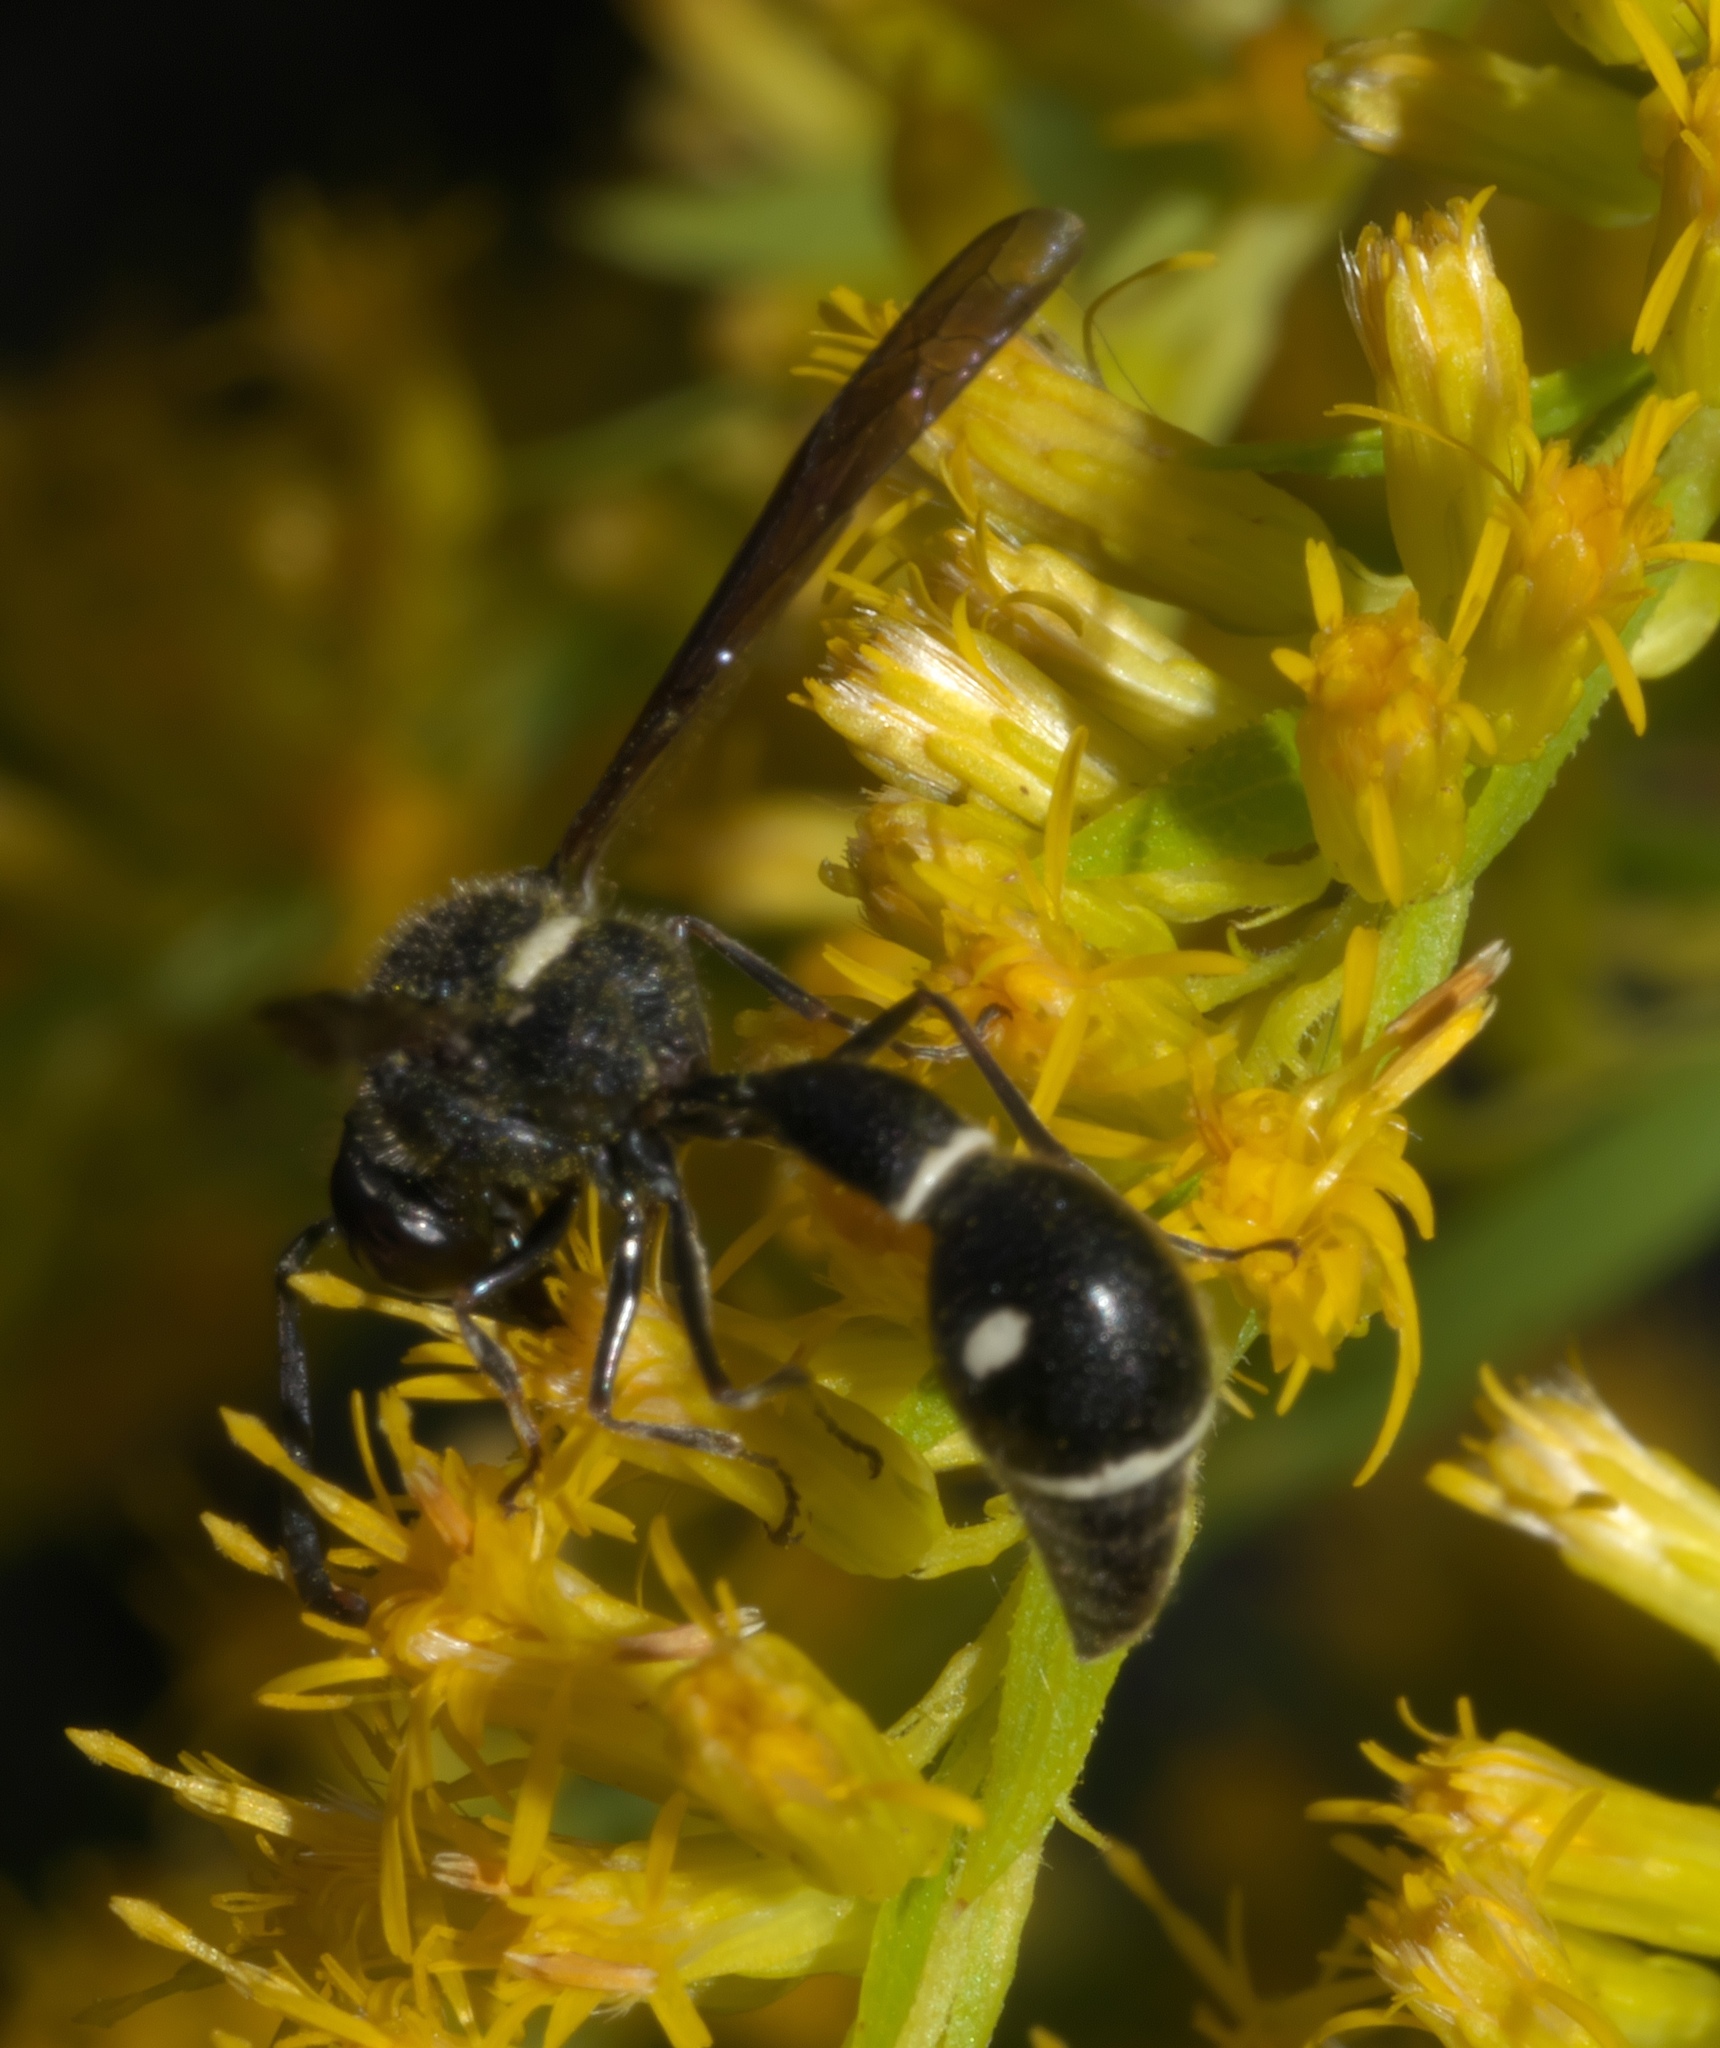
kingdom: Animalia
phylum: Arthropoda
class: Insecta
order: Hymenoptera
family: Vespidae
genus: Eumenes
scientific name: Eumenes fraternus
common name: Fraternal potter wasp
